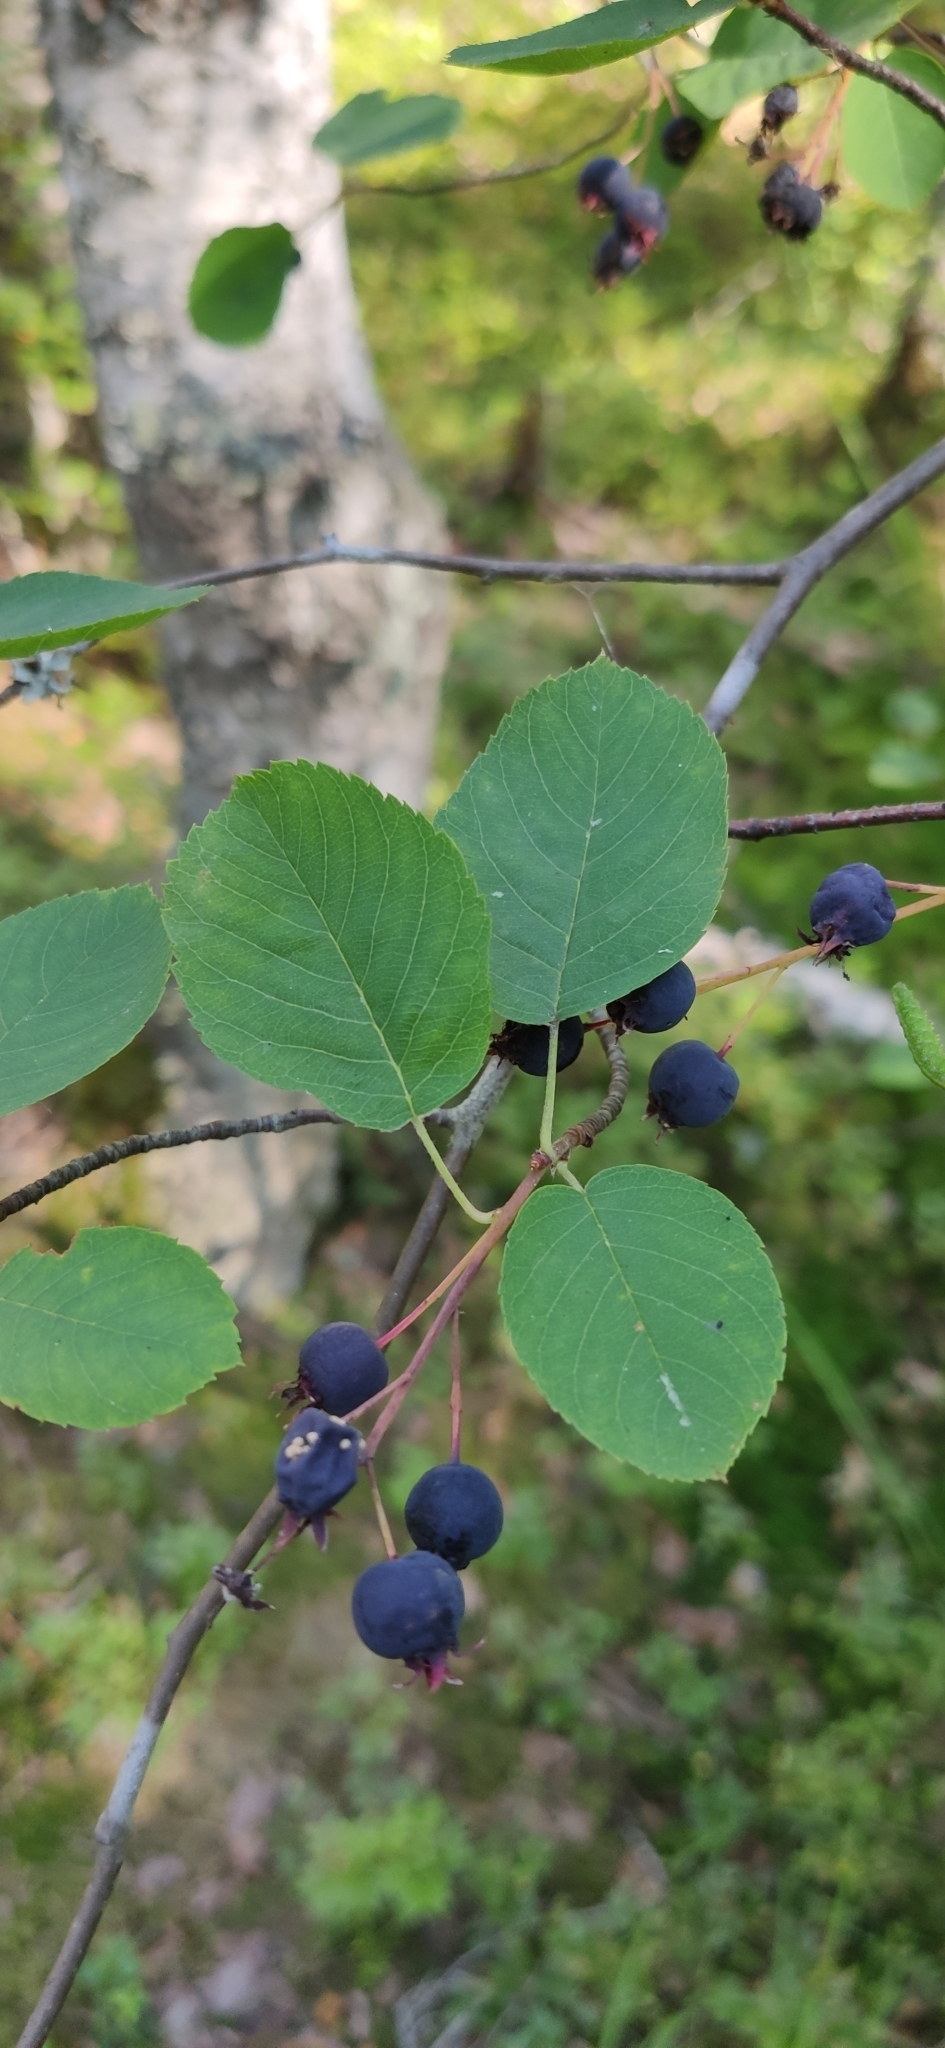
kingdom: Plantae
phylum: Tracheophyta
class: Magnoliopsida
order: Rosales
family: Rosaceae
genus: Amelanchier
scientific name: Amelanchier
